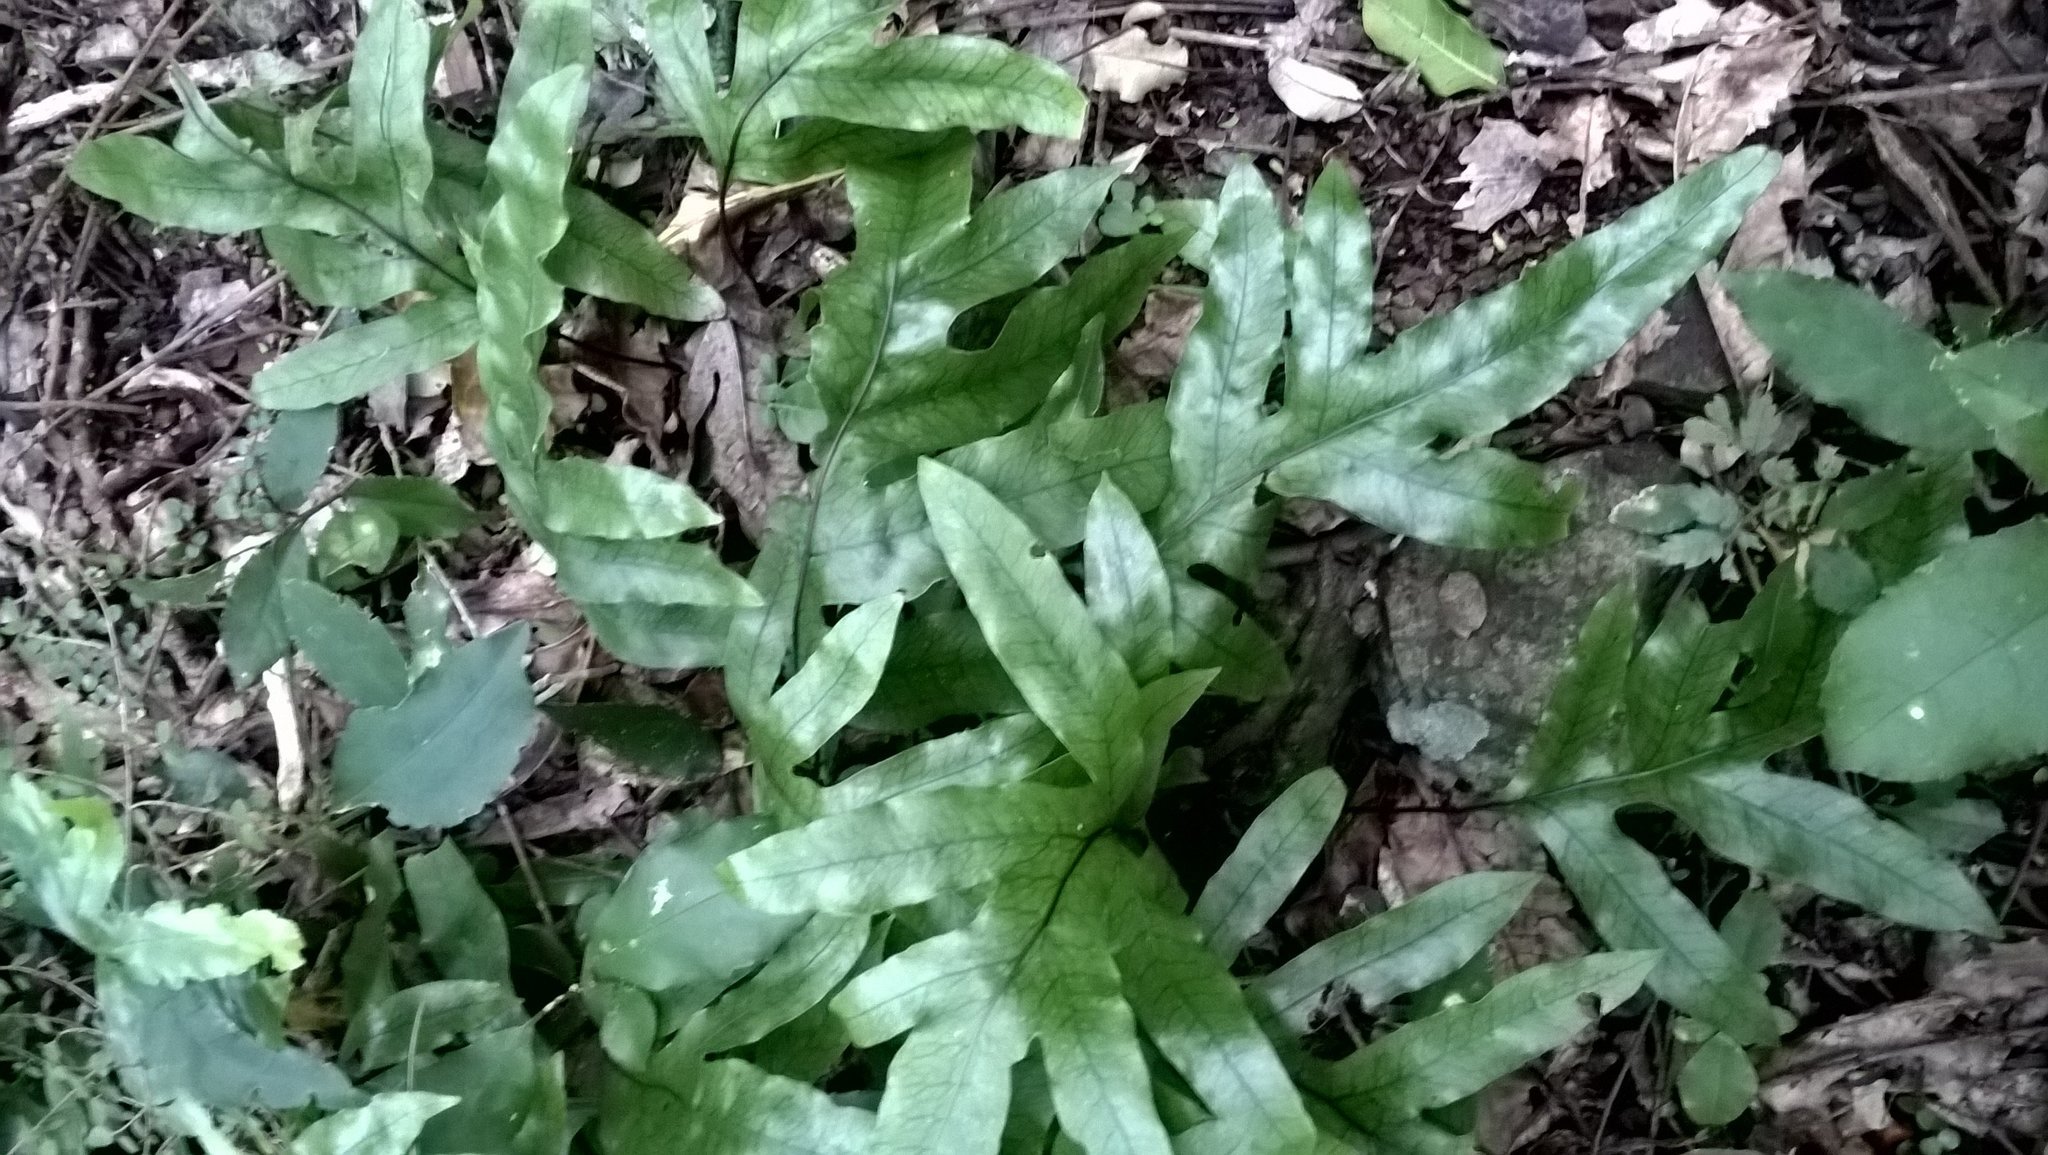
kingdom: Plantae
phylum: Tracheophyta
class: Polypodiopsida
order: Polypodiales
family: Polypodiaceae
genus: Lecanopteris
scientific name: Lecanopteris pustulata
